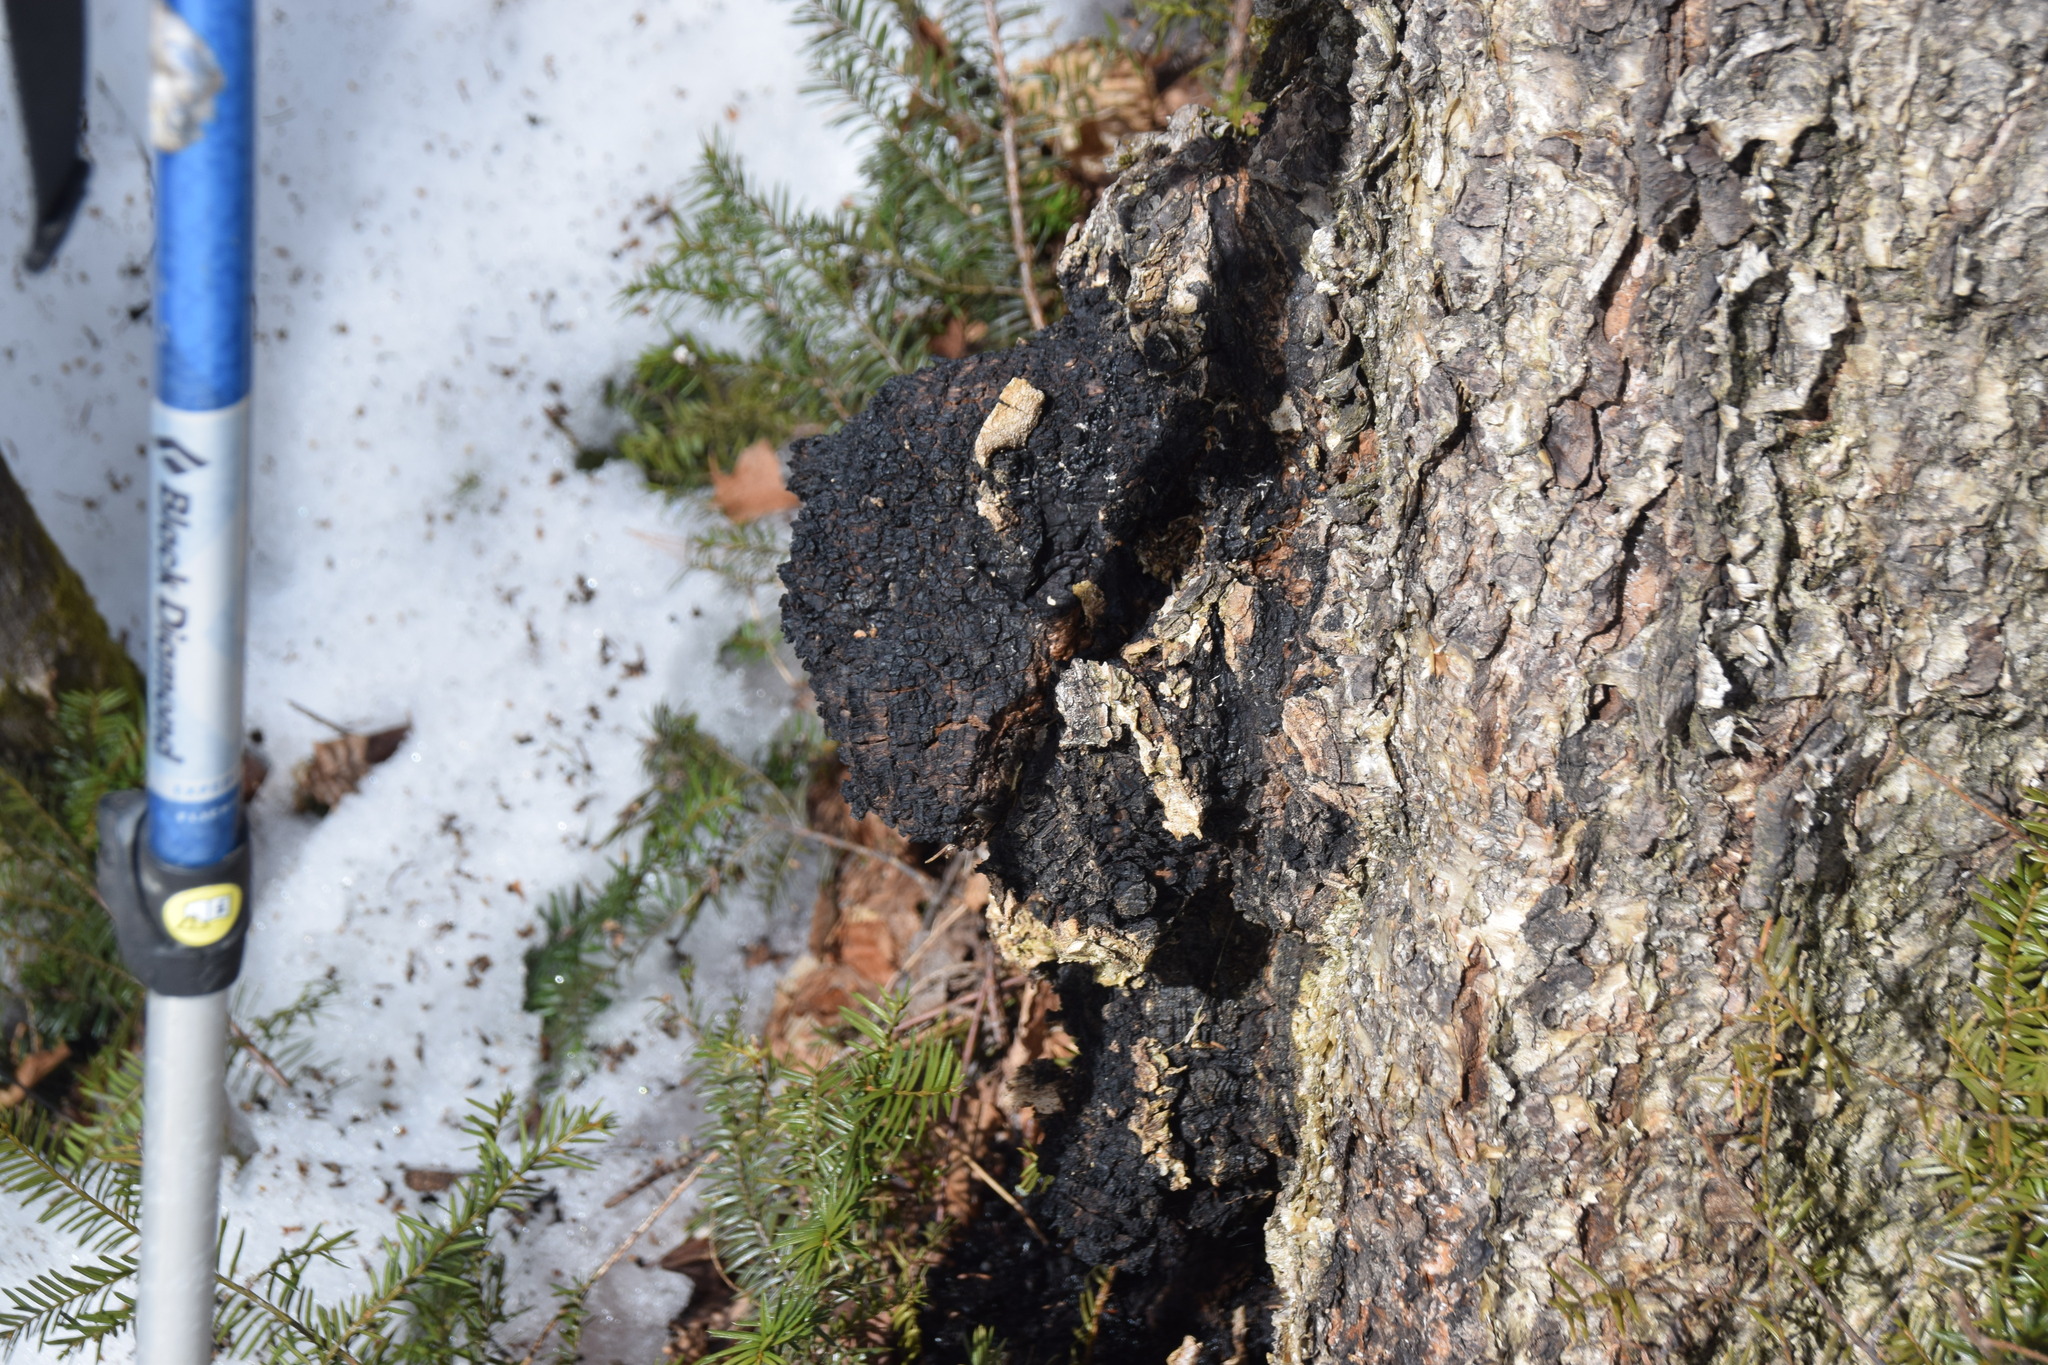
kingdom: Fungi
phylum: Basidiomycota
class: Agaricomycetes
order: Hymenochaetales
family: Hymenochaetaceae
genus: Inonotus
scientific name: Inonotus obliquus
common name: Chaga
